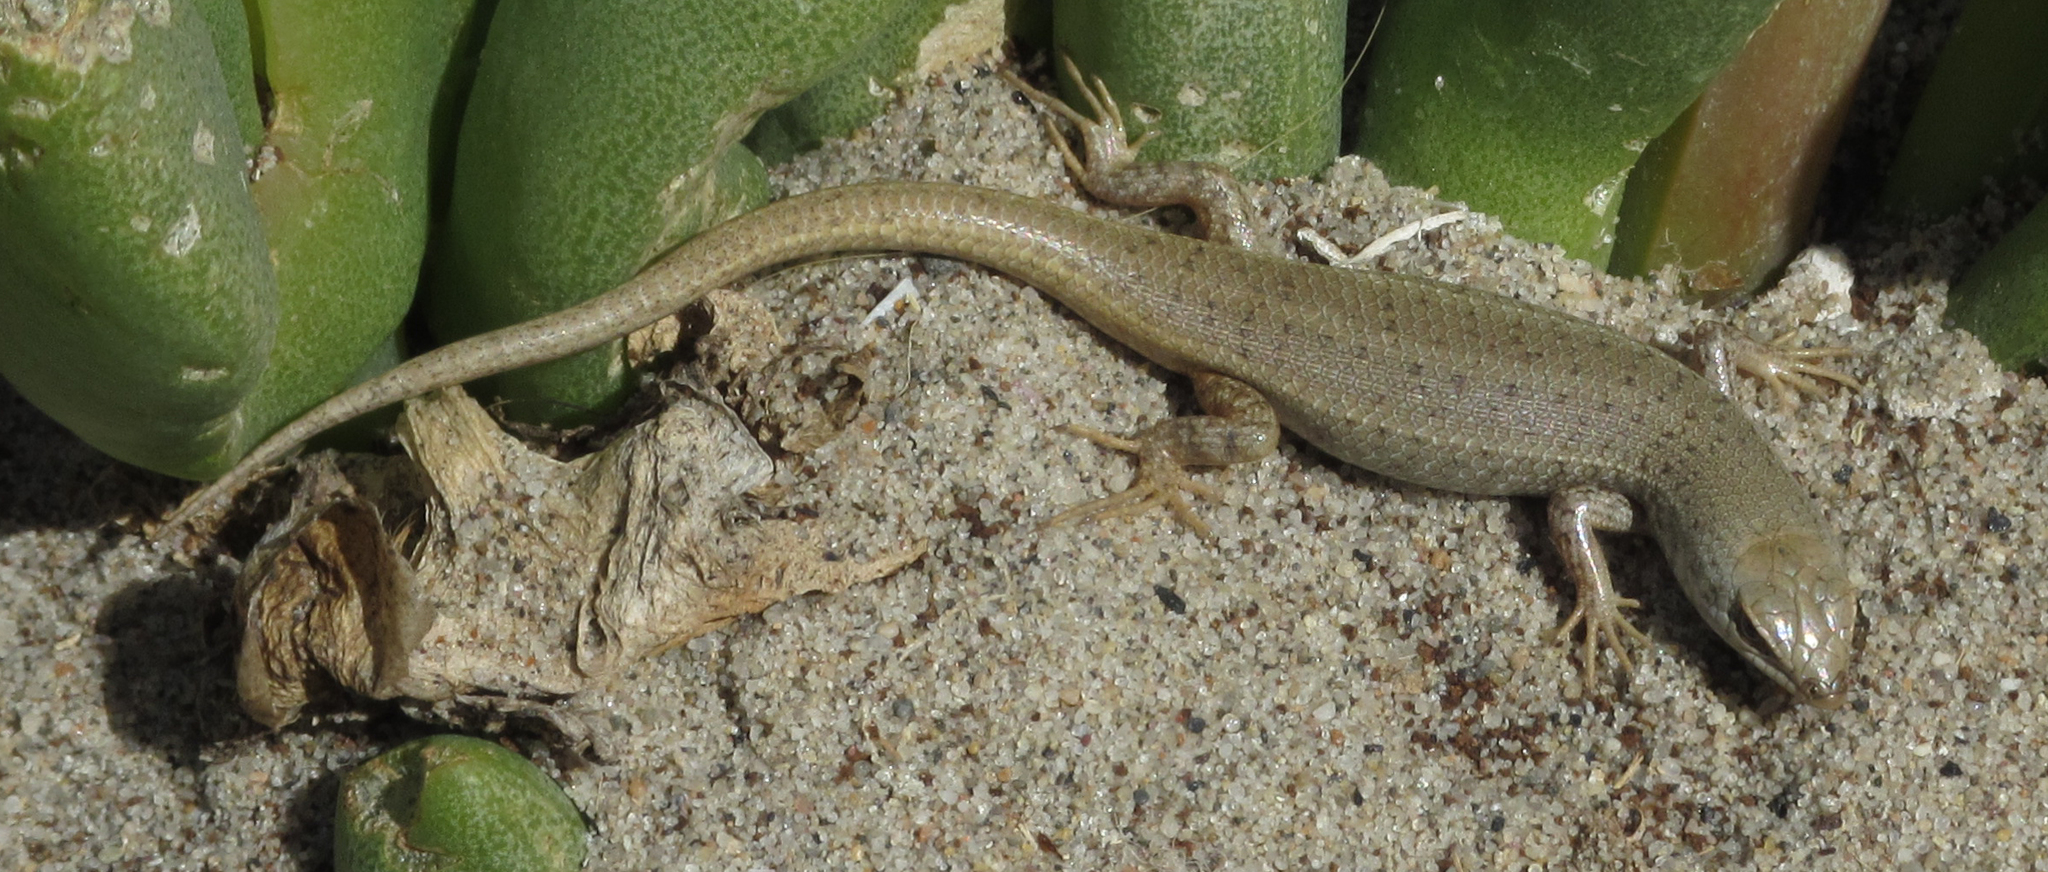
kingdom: Animalia
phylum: Chordata
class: Squamata
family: Scincidae
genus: Trachylepis
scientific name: Trachylepis hoeschi
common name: Hoesch's mabuya
